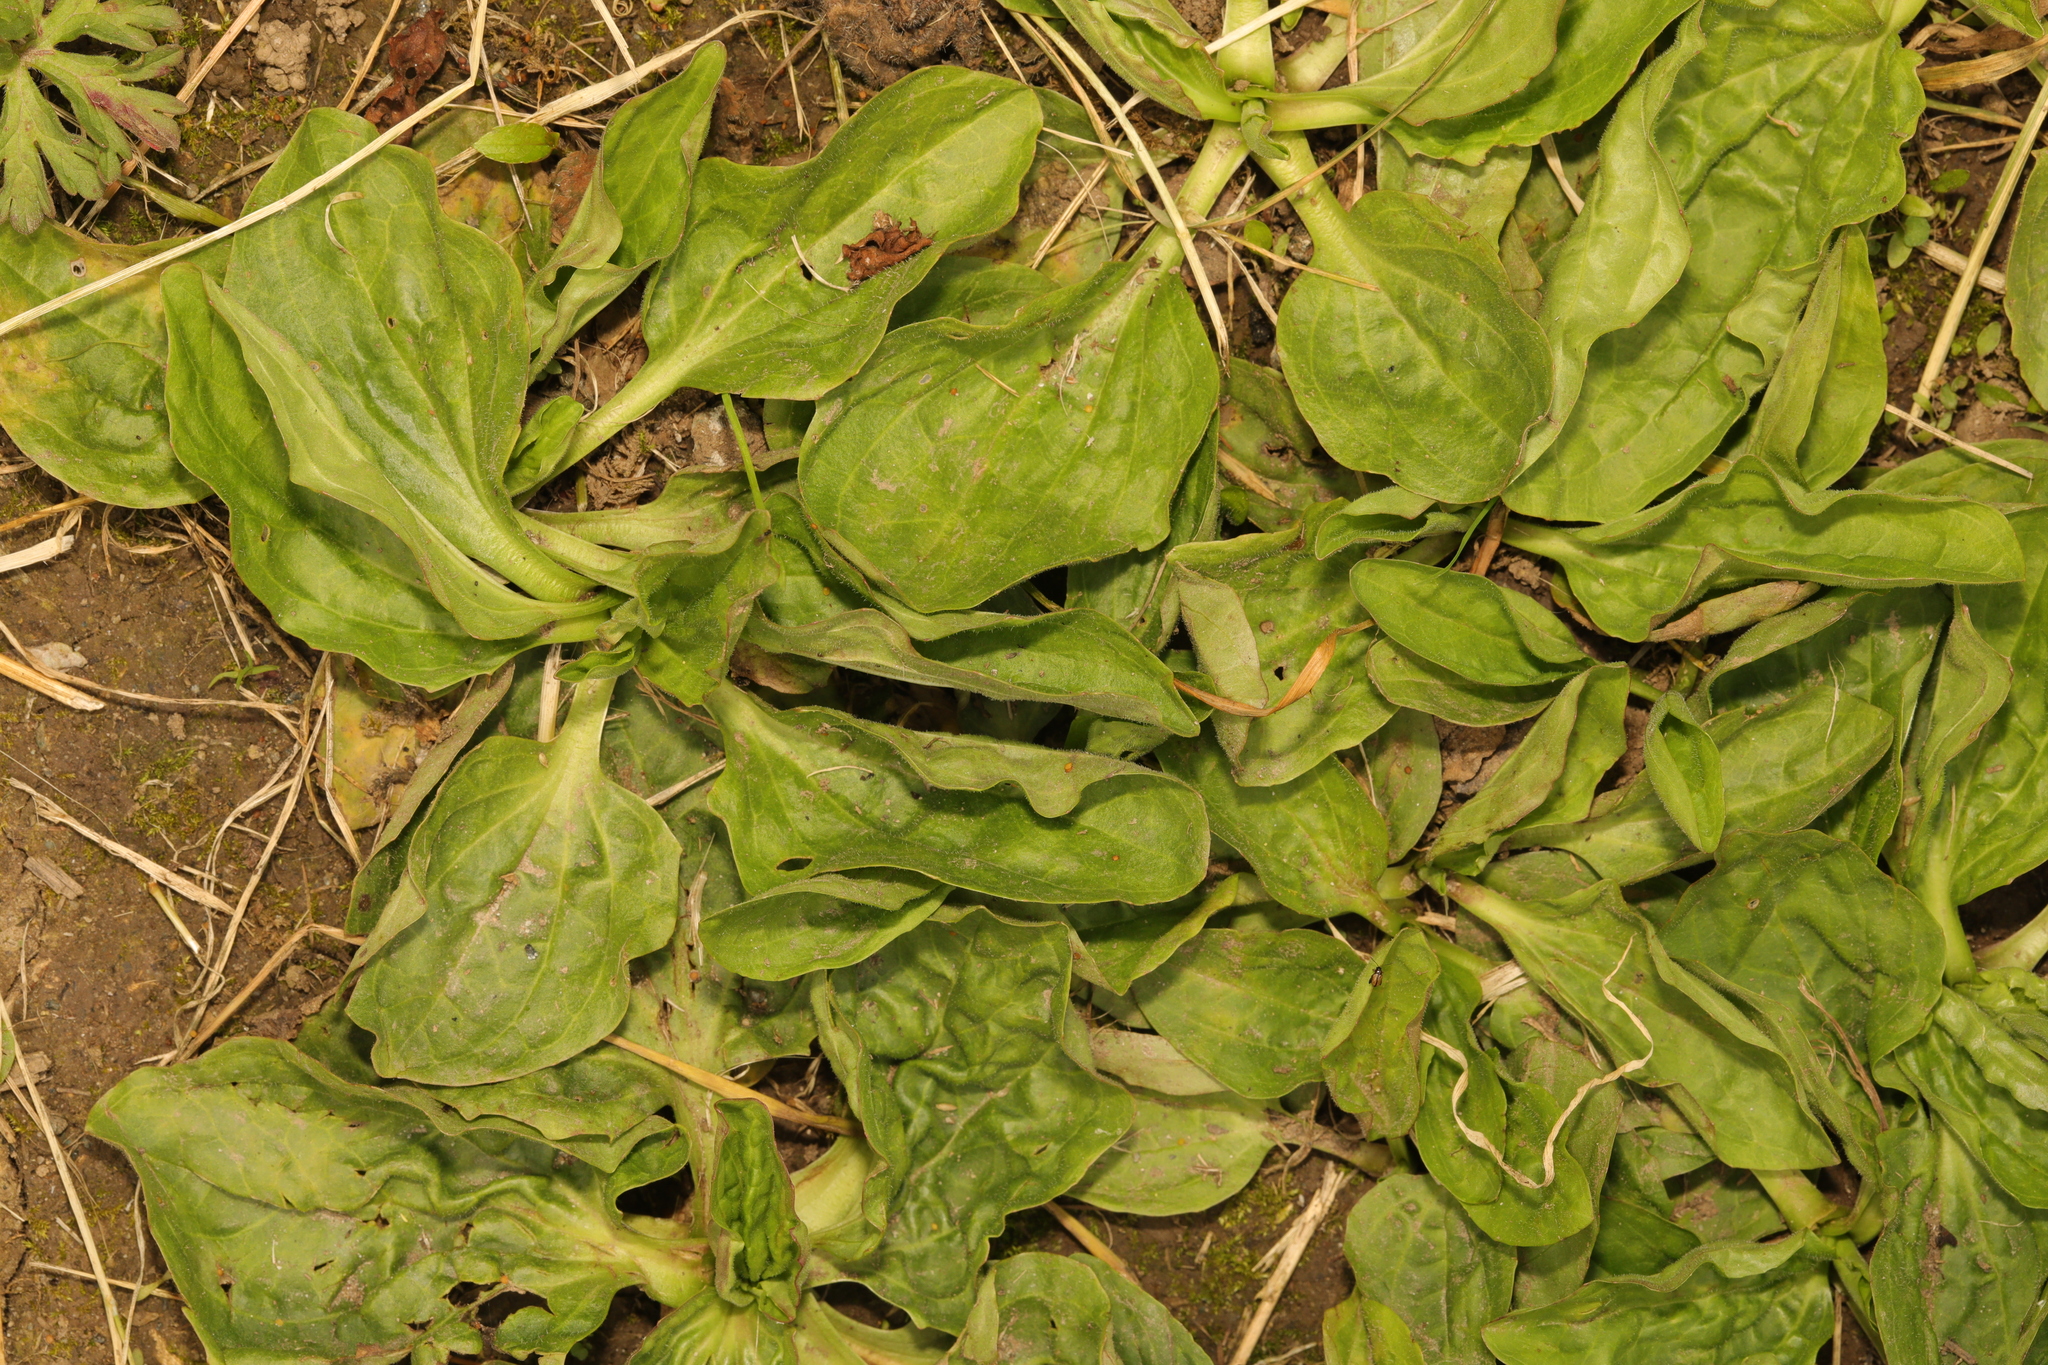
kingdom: Plantae
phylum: Tracheophyta
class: Magnoliopsida
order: Lamiales
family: Plantaginaceae
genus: Plantago
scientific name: Plantago major
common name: Common plantain
